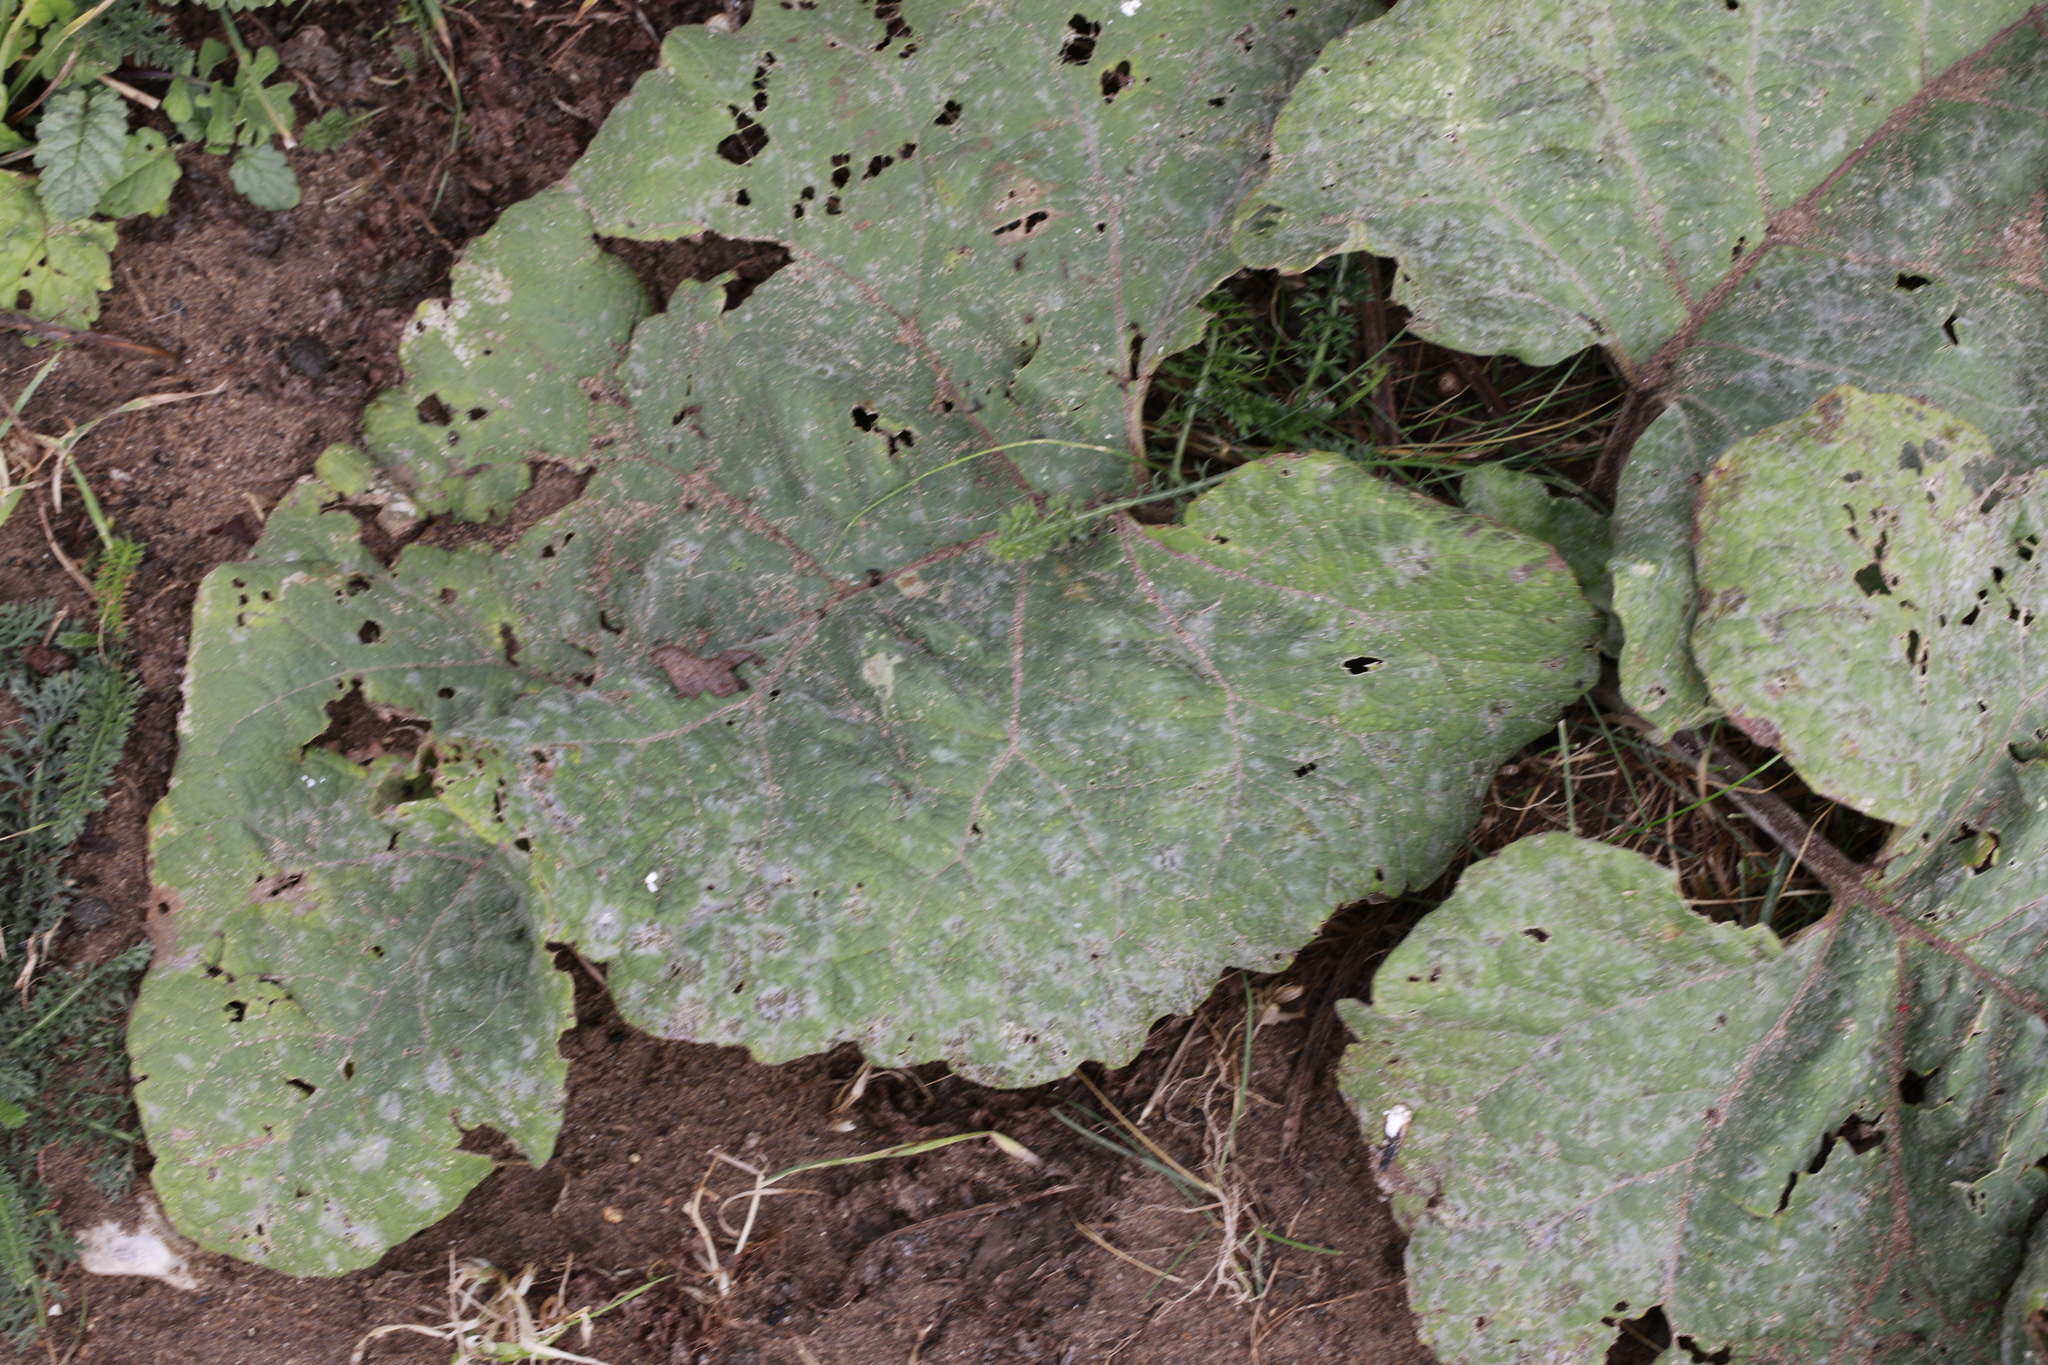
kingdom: Plantae
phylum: Tracheophyta
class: Magnoliopsida
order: Asterales
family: Asteraceae
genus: Arctium
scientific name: Arctium minus
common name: Lesser burdock
